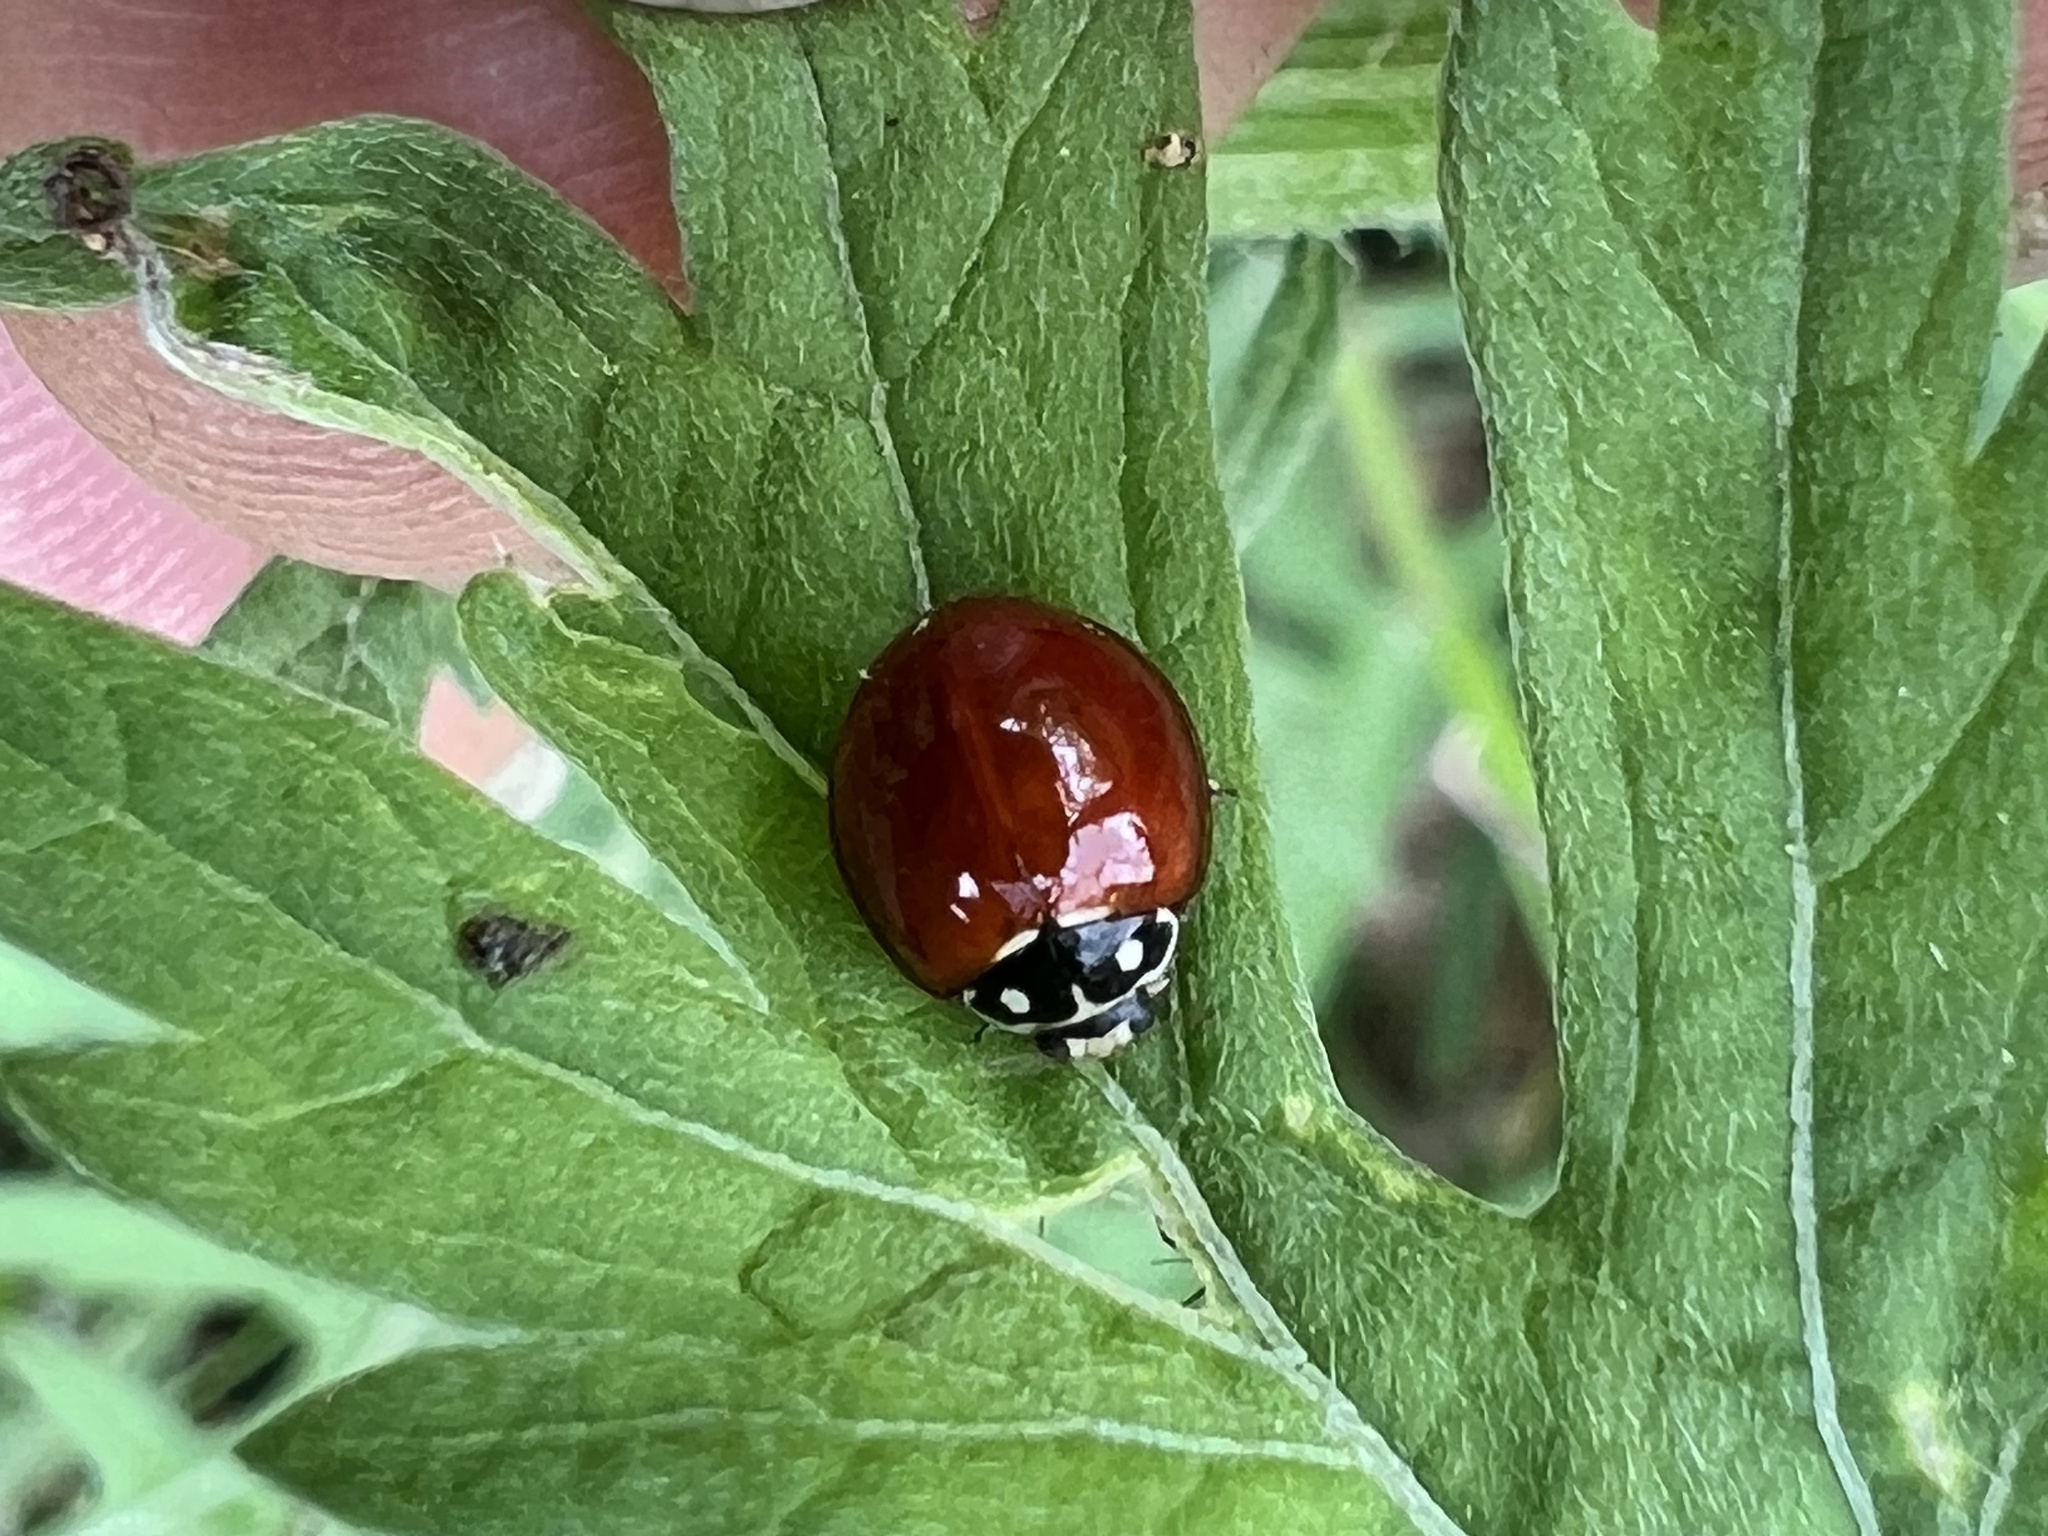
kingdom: Animalia
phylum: Arthropoda
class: Insecta
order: Coleoptera
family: Coccinellidae
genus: Cycloneda
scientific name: Cycloneda sanguinea
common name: Ladybird beetle
